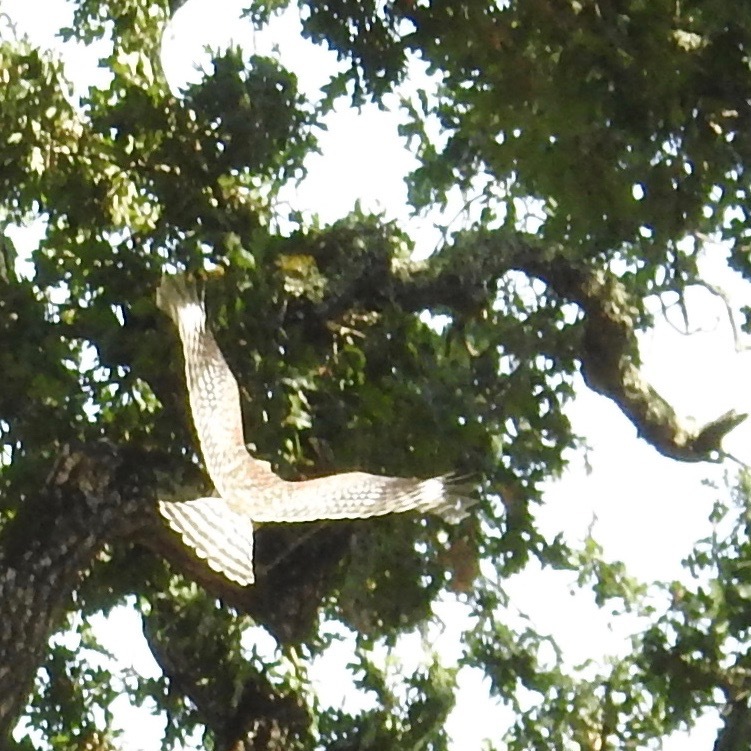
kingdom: Animalia
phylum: Chordata
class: Aves
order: Accipitriformes
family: Accipitridae
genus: Buteo
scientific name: Buteo lineatus
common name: Red-shouldered hawk
